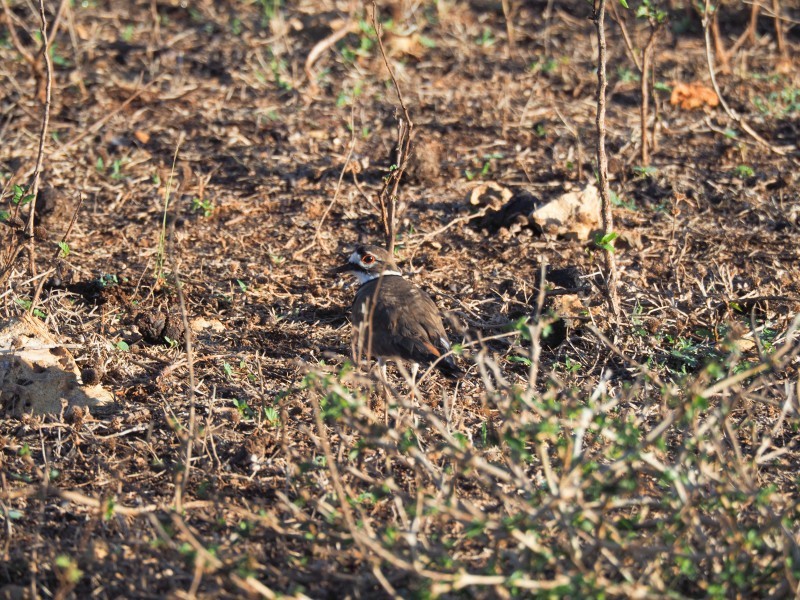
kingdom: Animalia
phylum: Chordata
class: Aves
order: Charadriiformes
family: Charadriidae
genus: Charadrius
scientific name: Charadrius vociferus
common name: Killdeer
